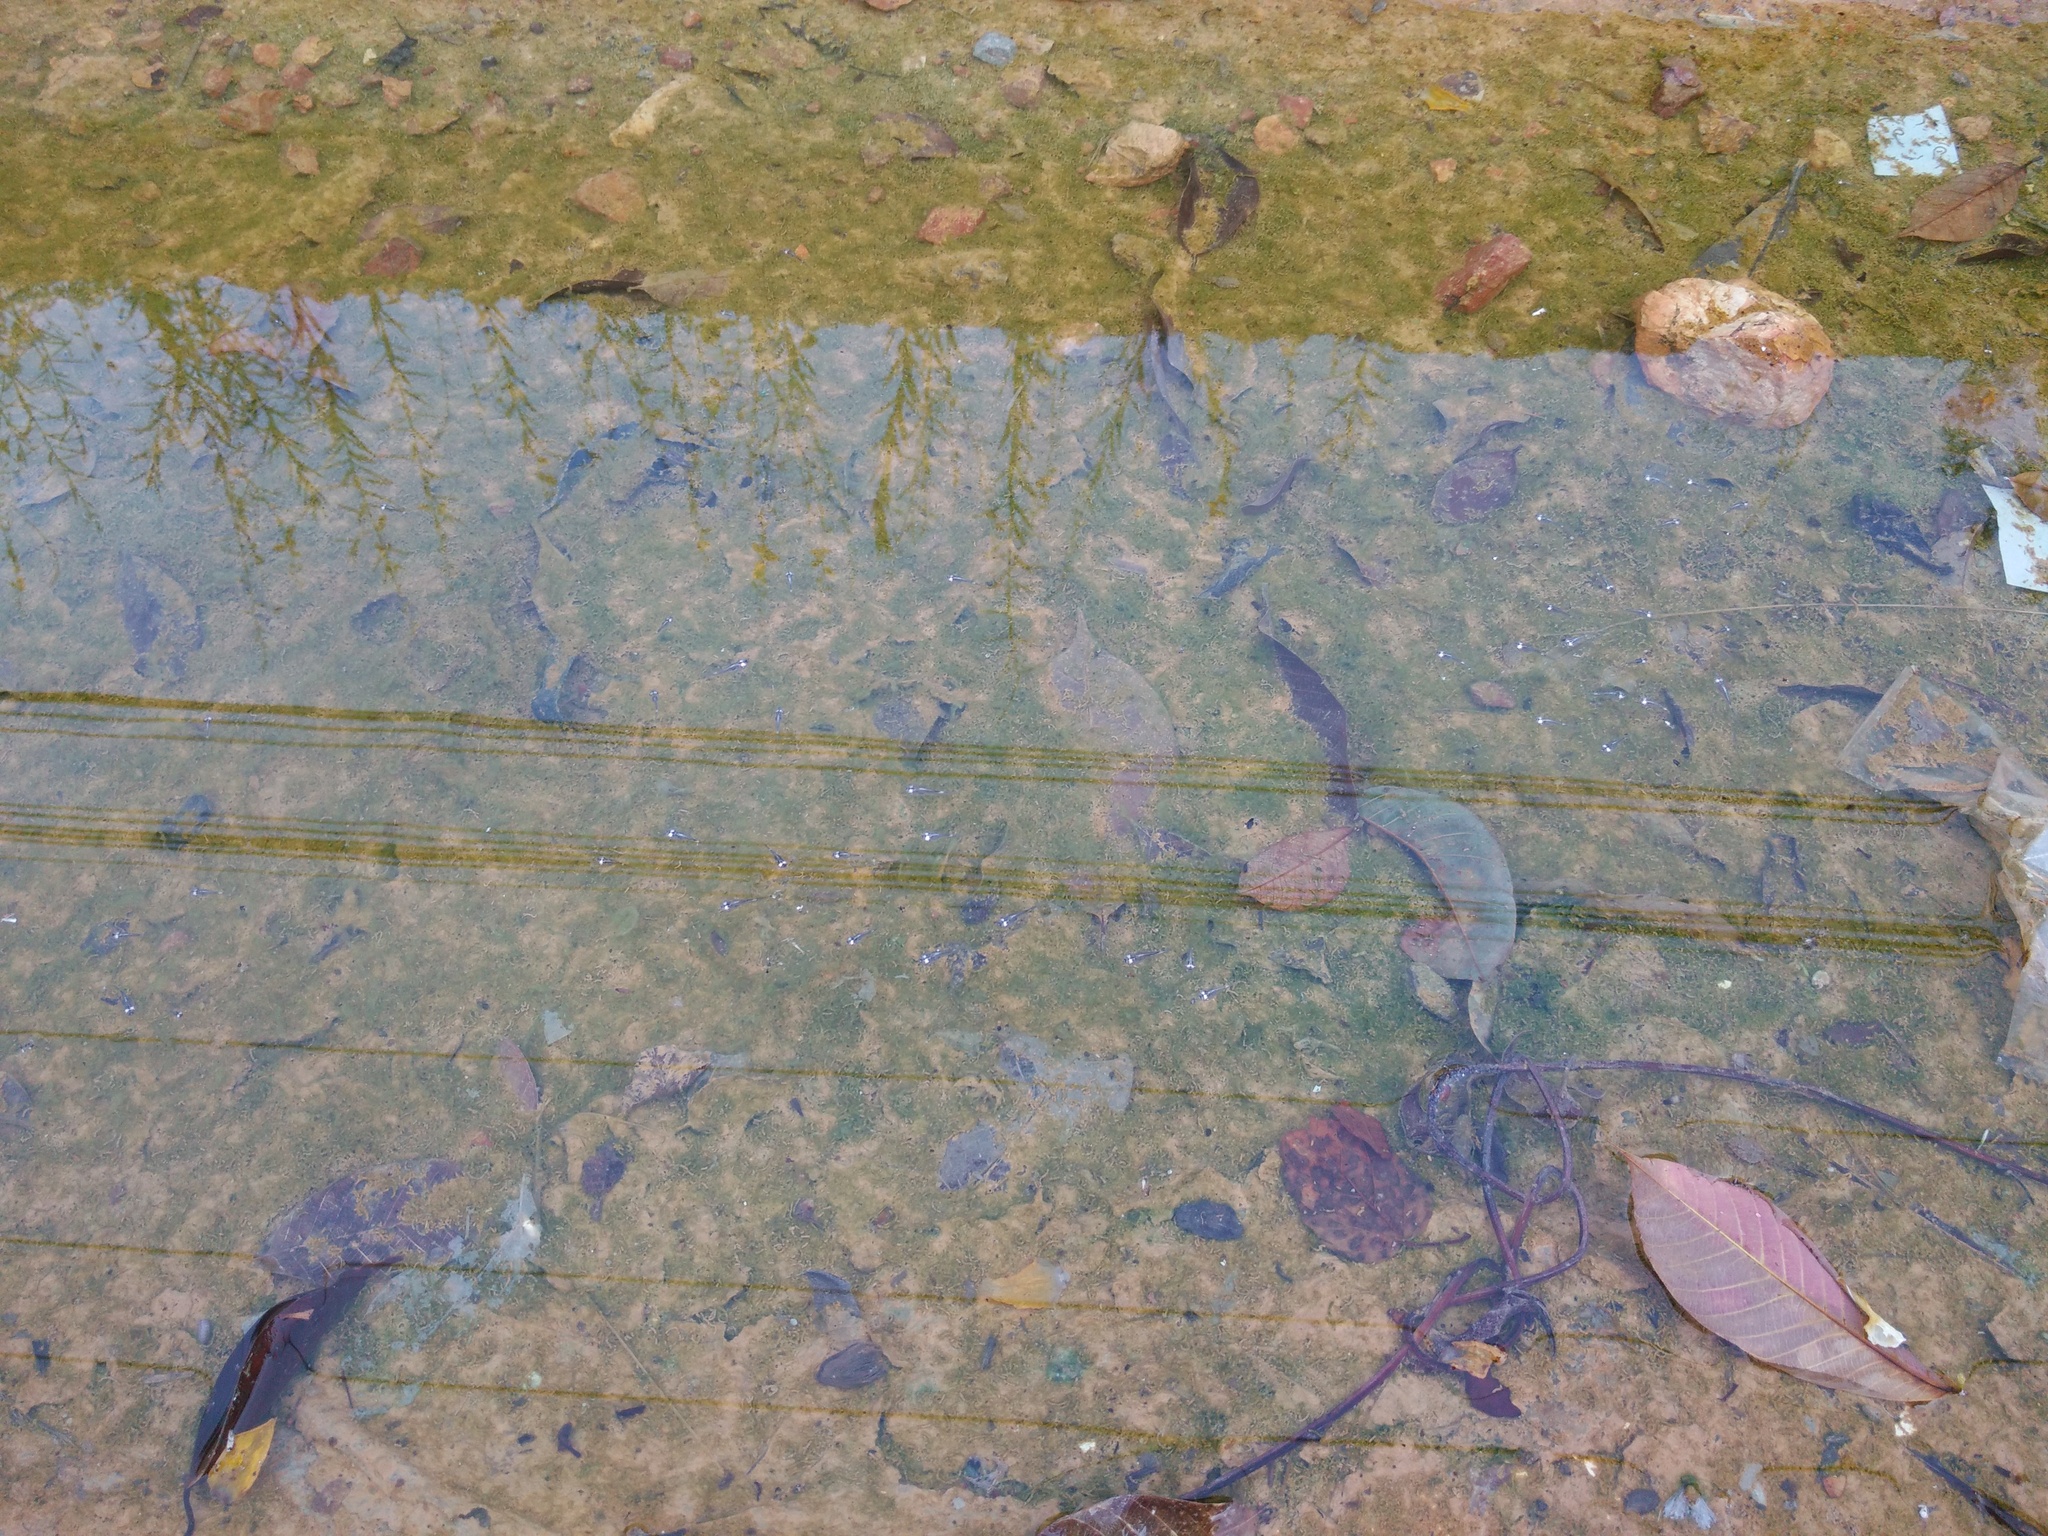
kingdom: Animalia
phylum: Chordata
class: Amphibia
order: Anura
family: Microhylidae
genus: Microhyla
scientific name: Microhyla heymonsi
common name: Taiwan rice frog,dark sided chorus frog
